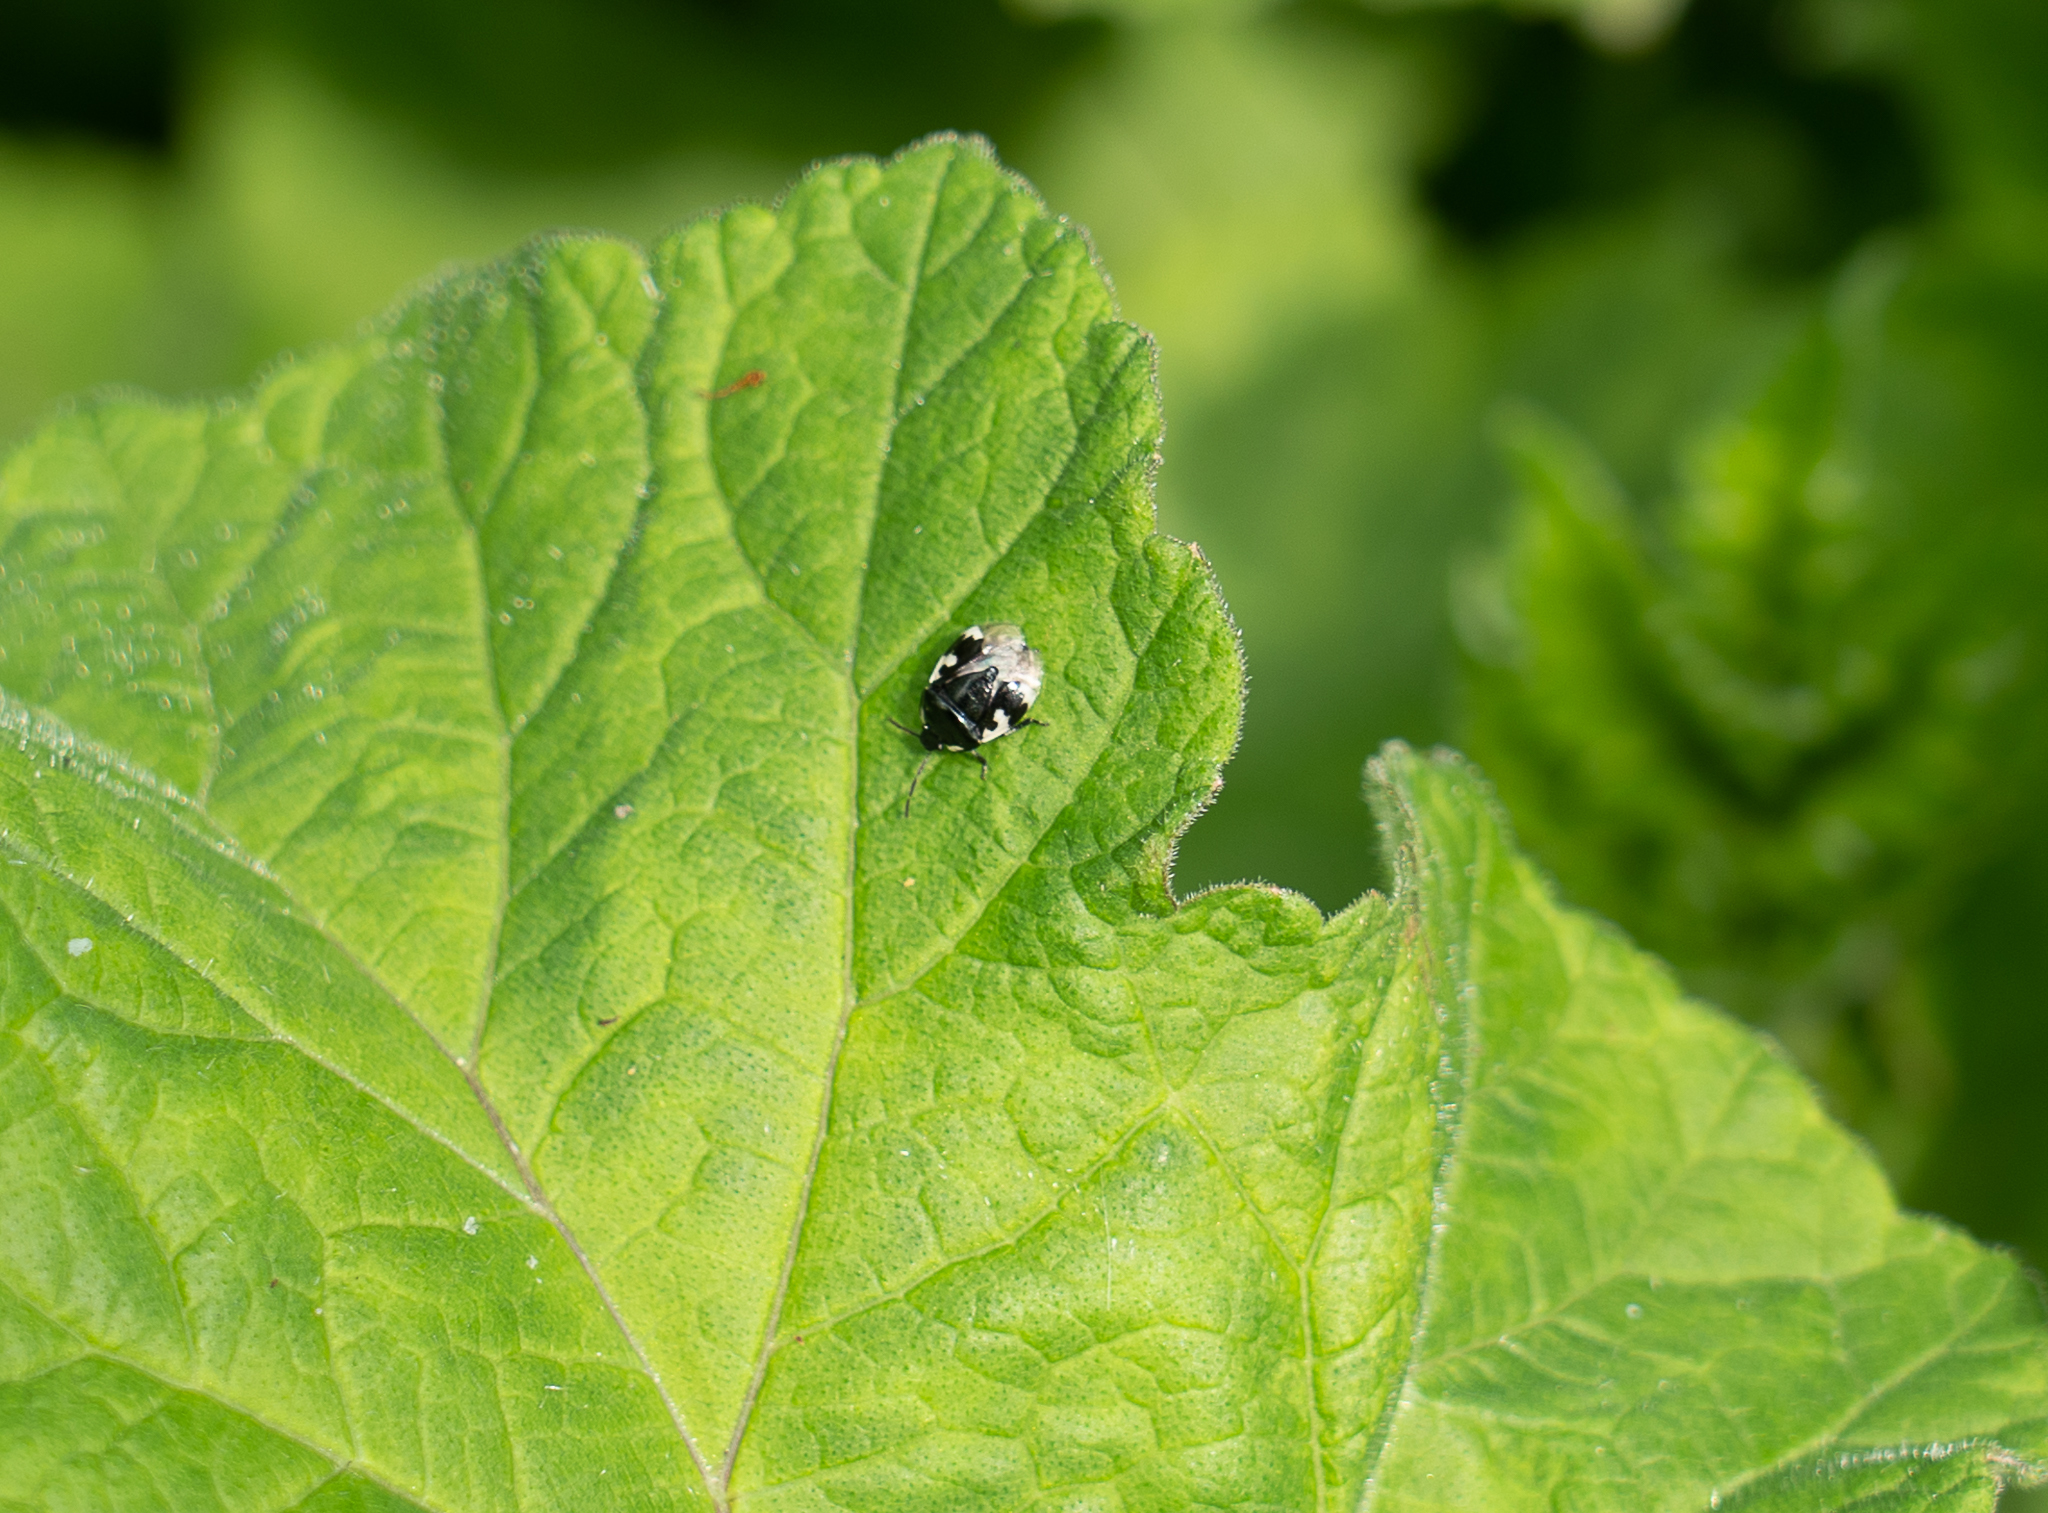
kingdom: Animalia
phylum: Arthropoda
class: Insecta
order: Hemiptera
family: Cydnidae
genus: Tritomegas
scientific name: Tritomegas bicolor
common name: Pied shieldbug
